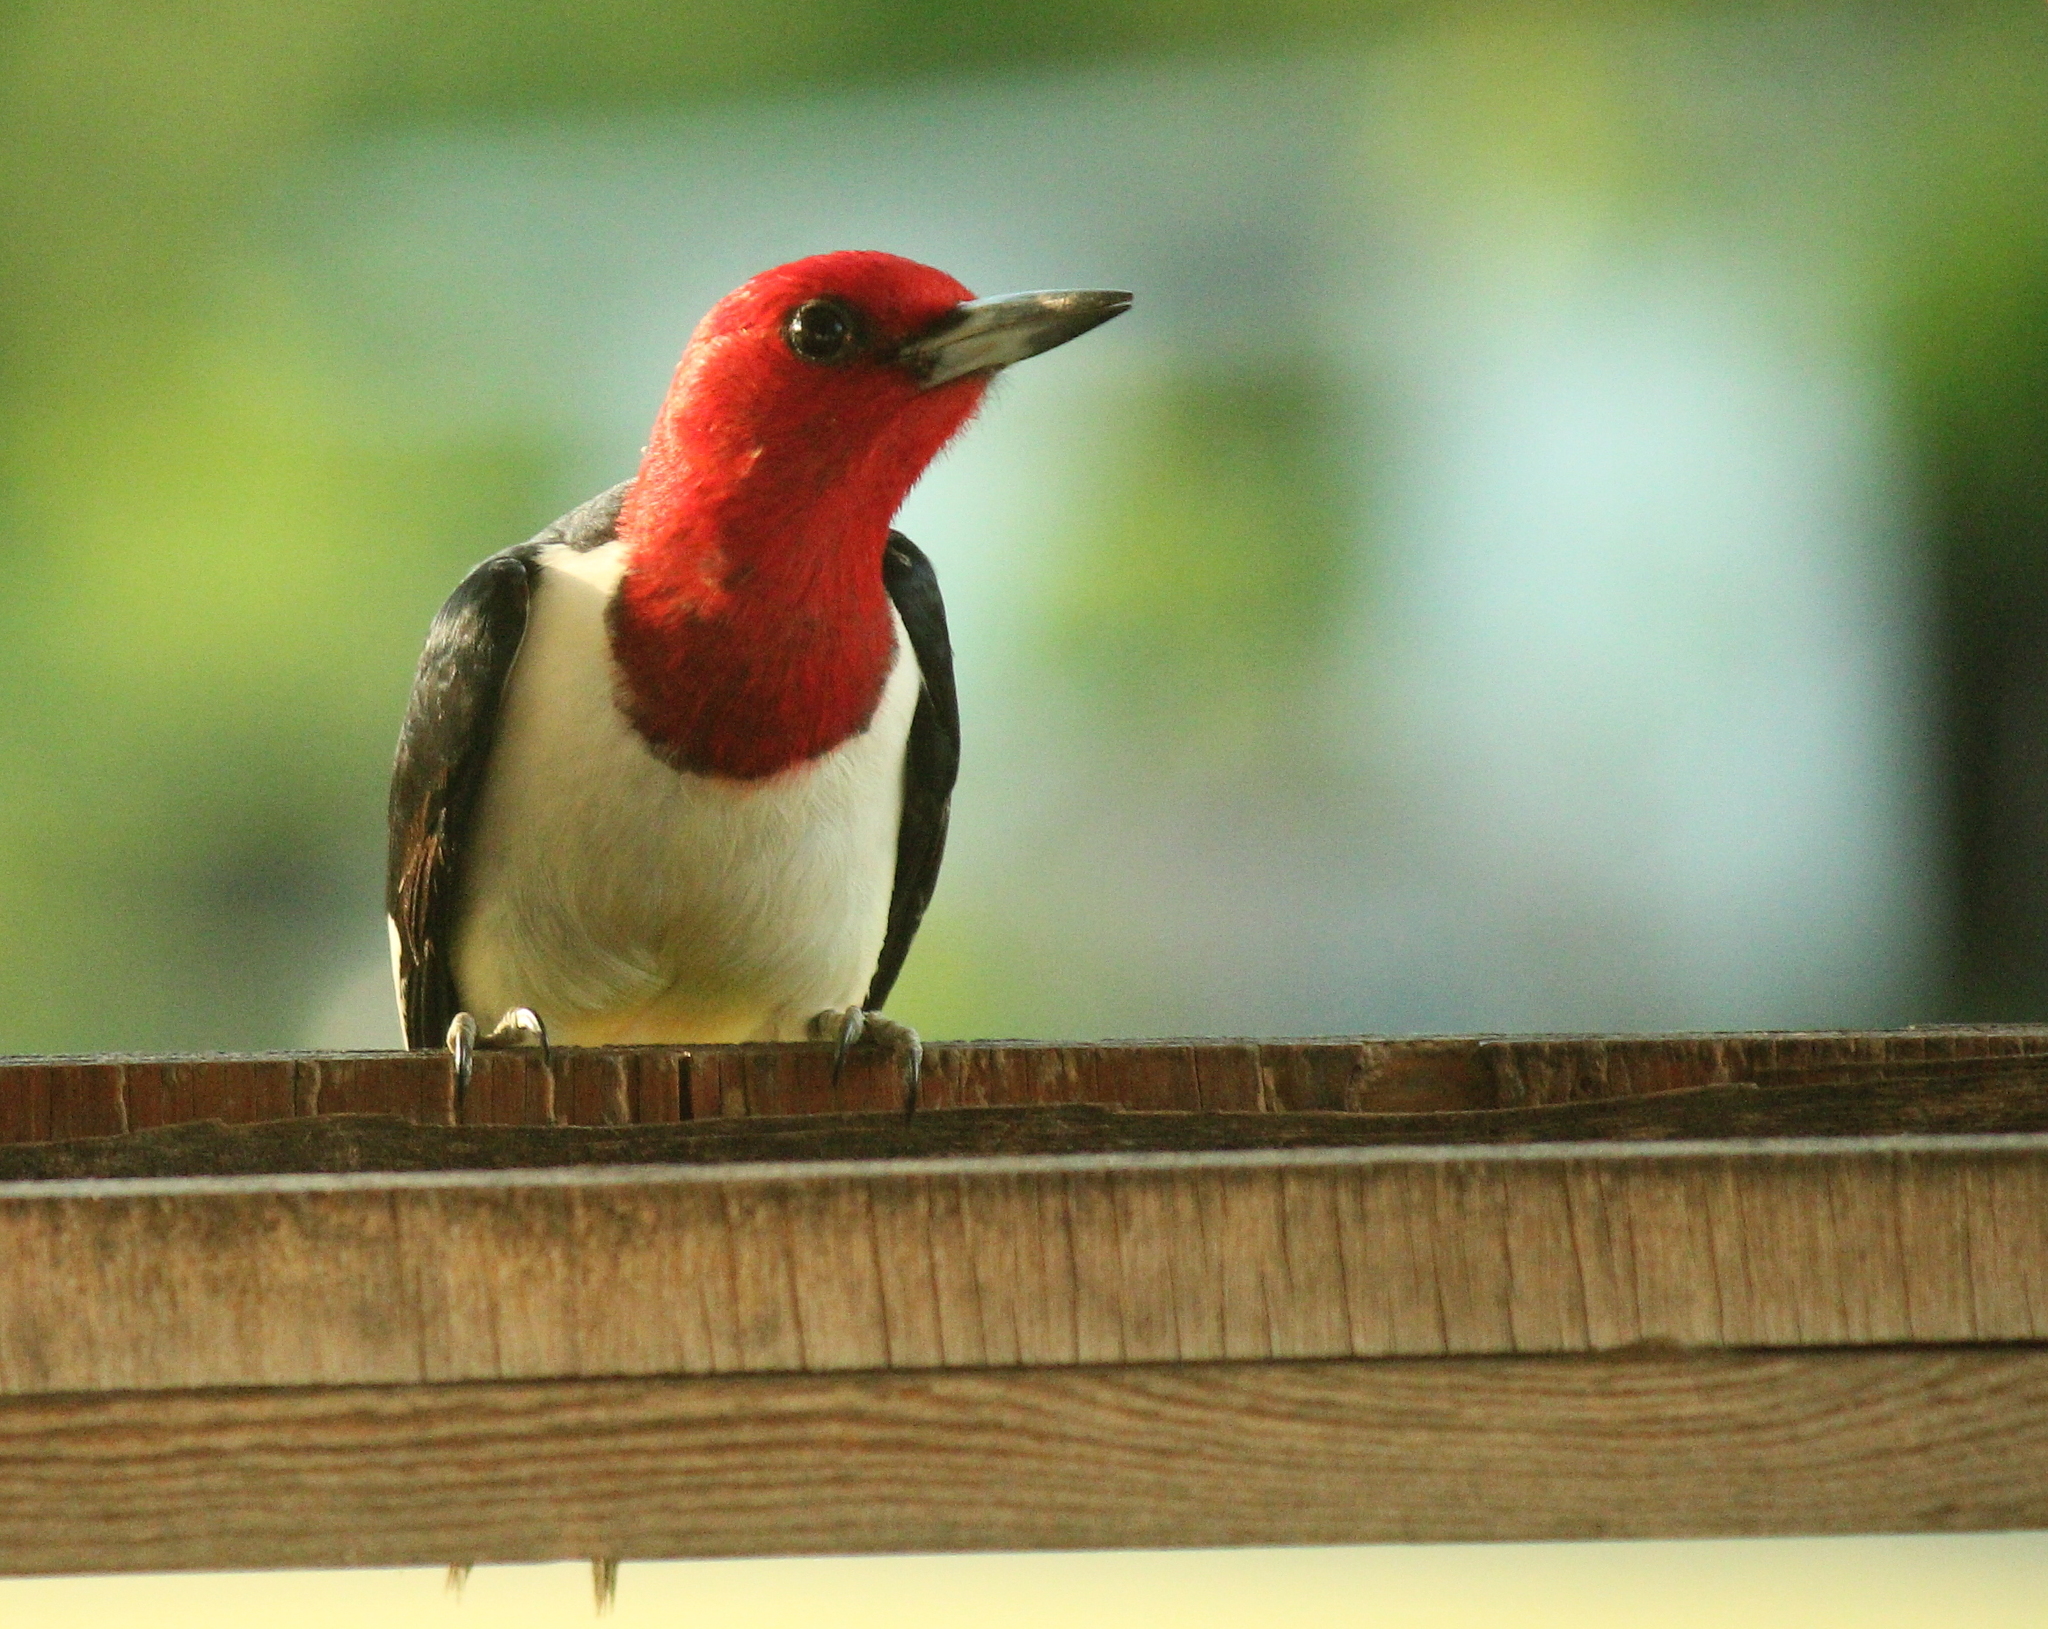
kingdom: Animalia
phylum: Chordata
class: Aves
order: Piciformes
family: Picidae
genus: Melanerpes
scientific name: Melanerpes erythrocephalus
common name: Red-headed woodpecker
